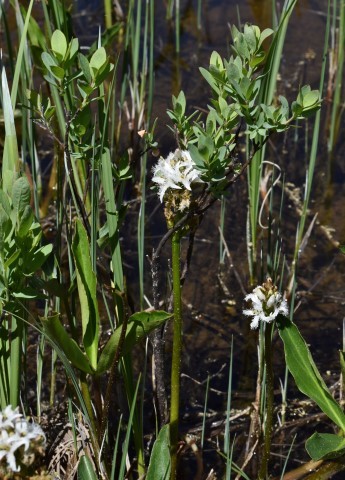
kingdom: Plantae
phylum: Tracheophyta
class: Magnoliopsida
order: Asterales
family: Menyanthaceae
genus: Menyanthes
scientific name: Menyanthes trifoliata
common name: Bogbean
